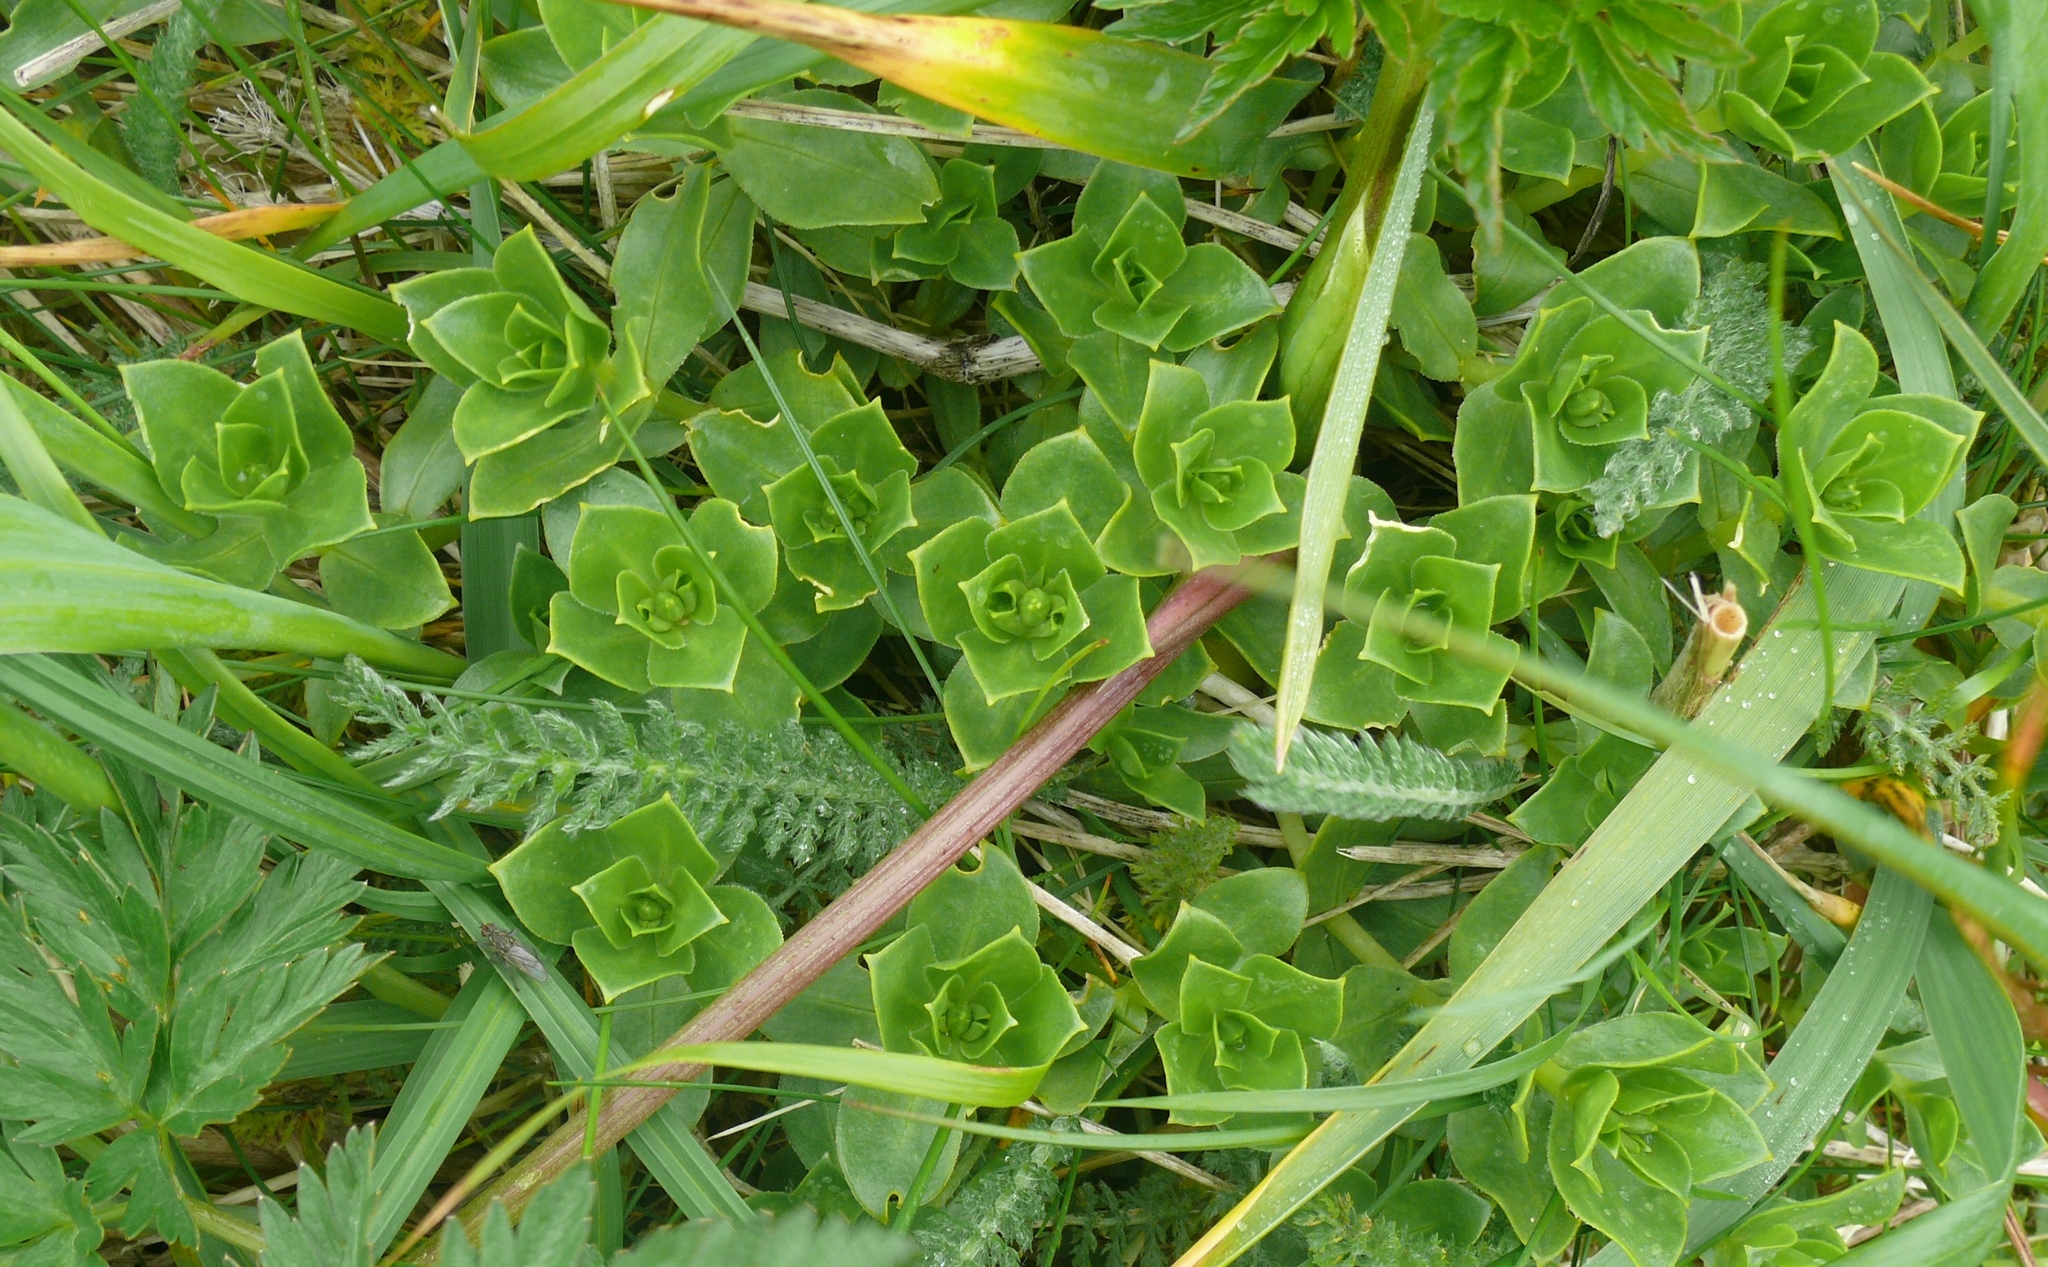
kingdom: Plantae
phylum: Tracheophyta
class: Magnoliopsida
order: Caryophyllales
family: Caryophyllaceae
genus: Honckenya
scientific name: Honckenya peploides
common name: Sea sandwort
